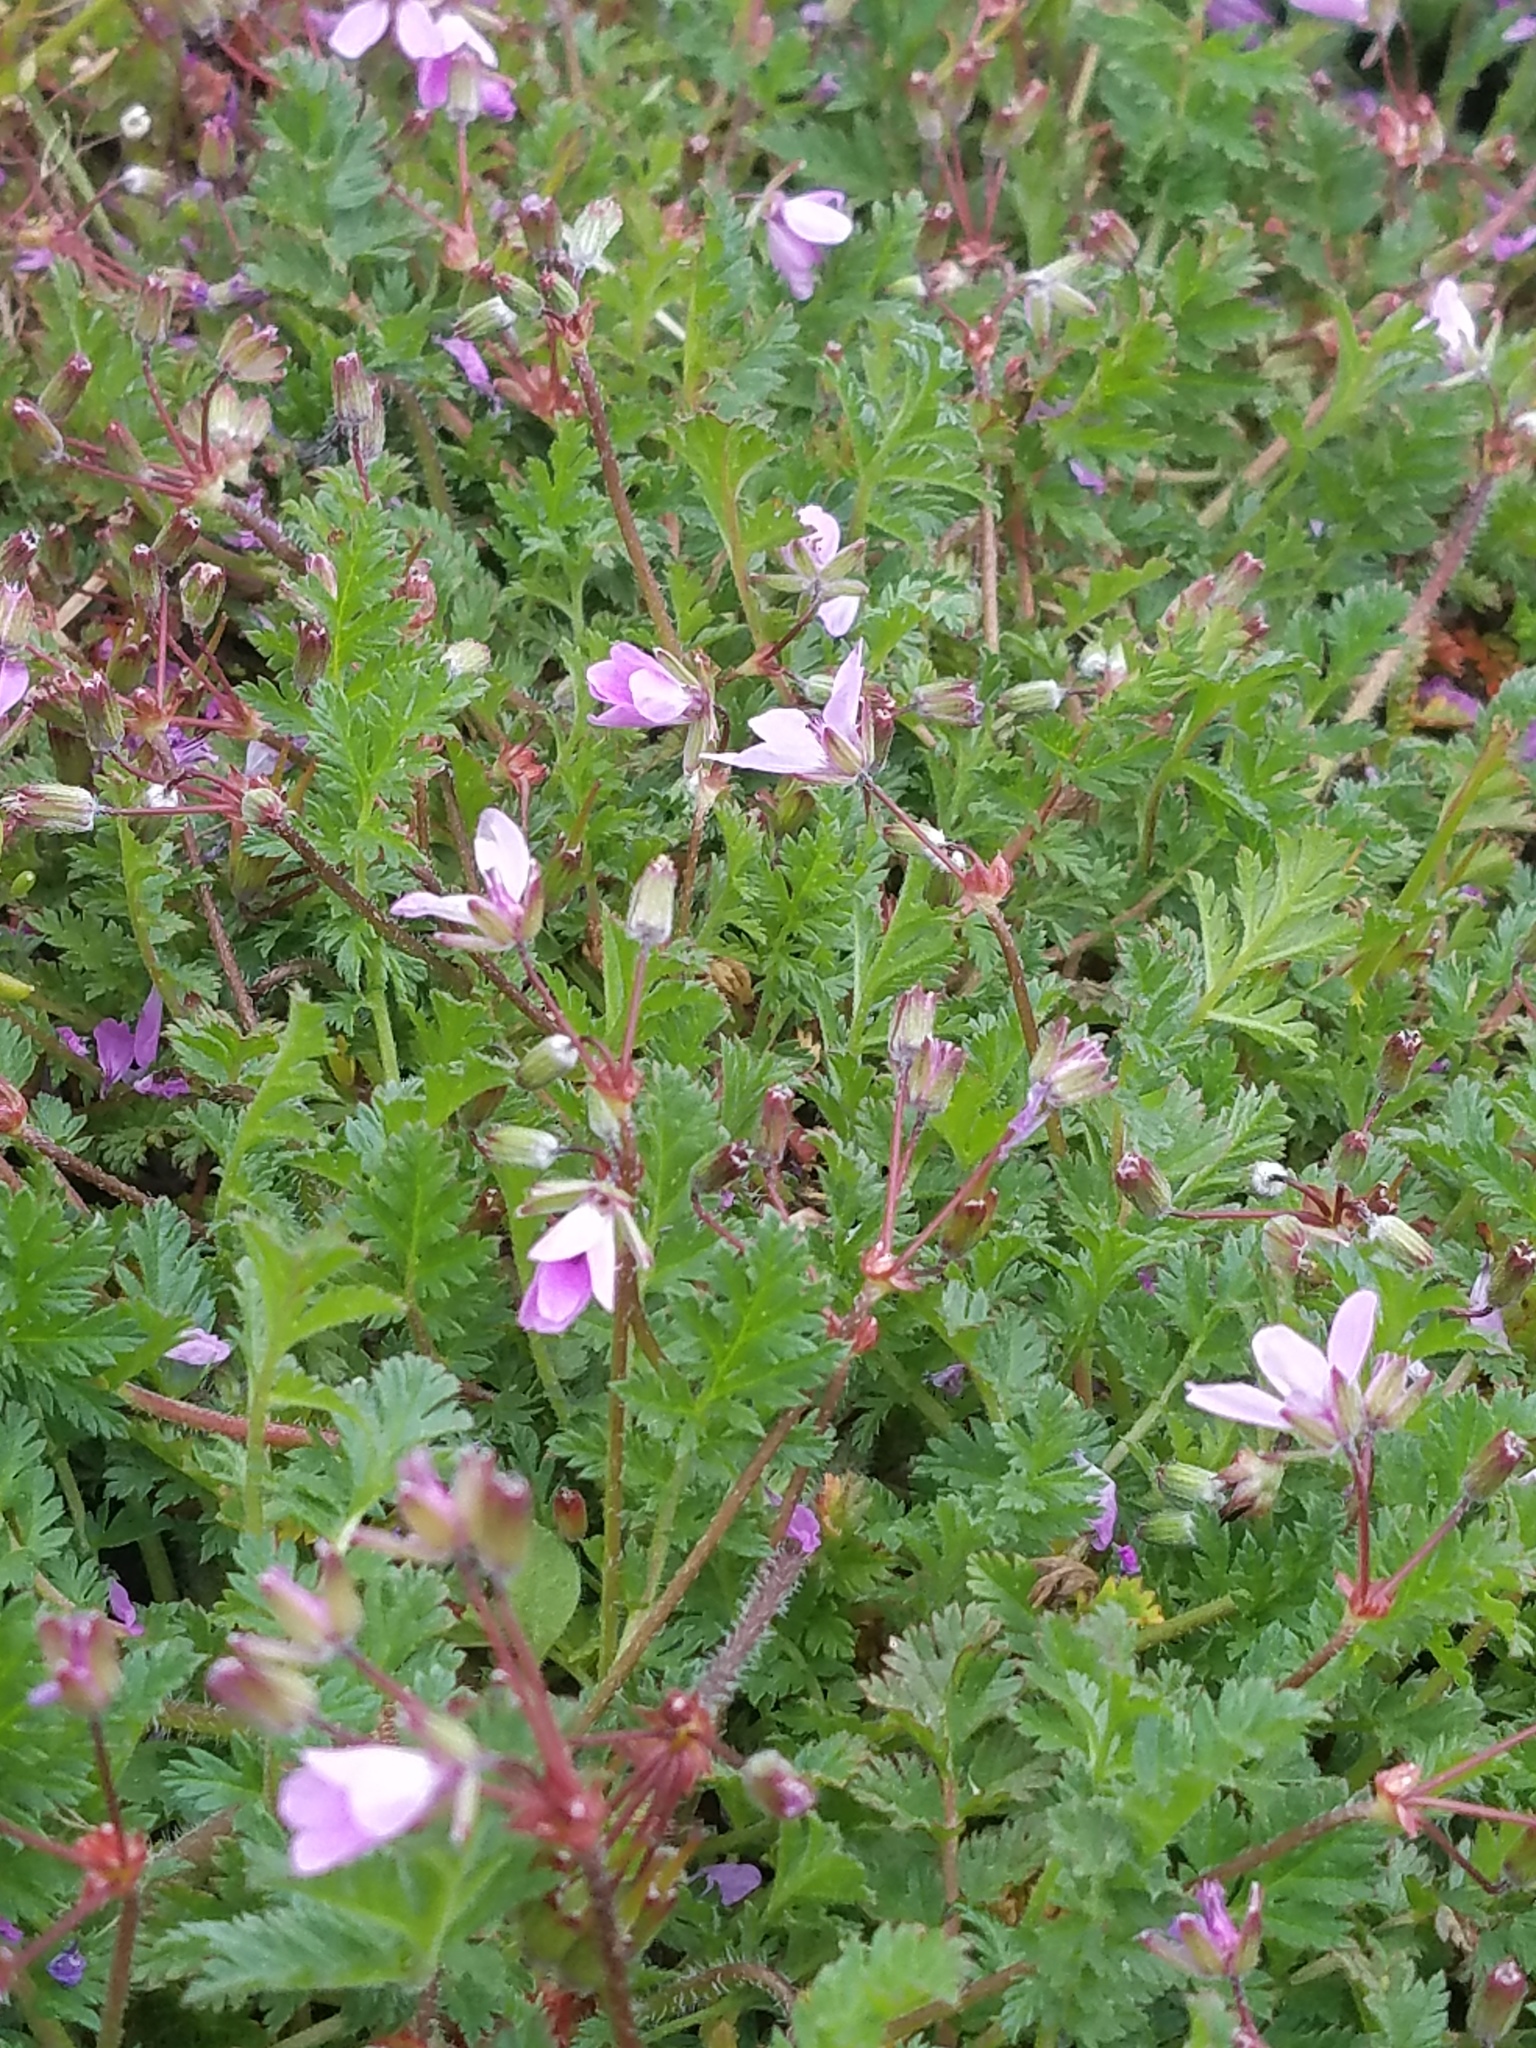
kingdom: Plantae
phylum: Tracheophyta
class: Magnoliopsida
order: Geraniales
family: Geraniaceae
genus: Erodium
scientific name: Erodium cicutarium
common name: Common stork's-bill
